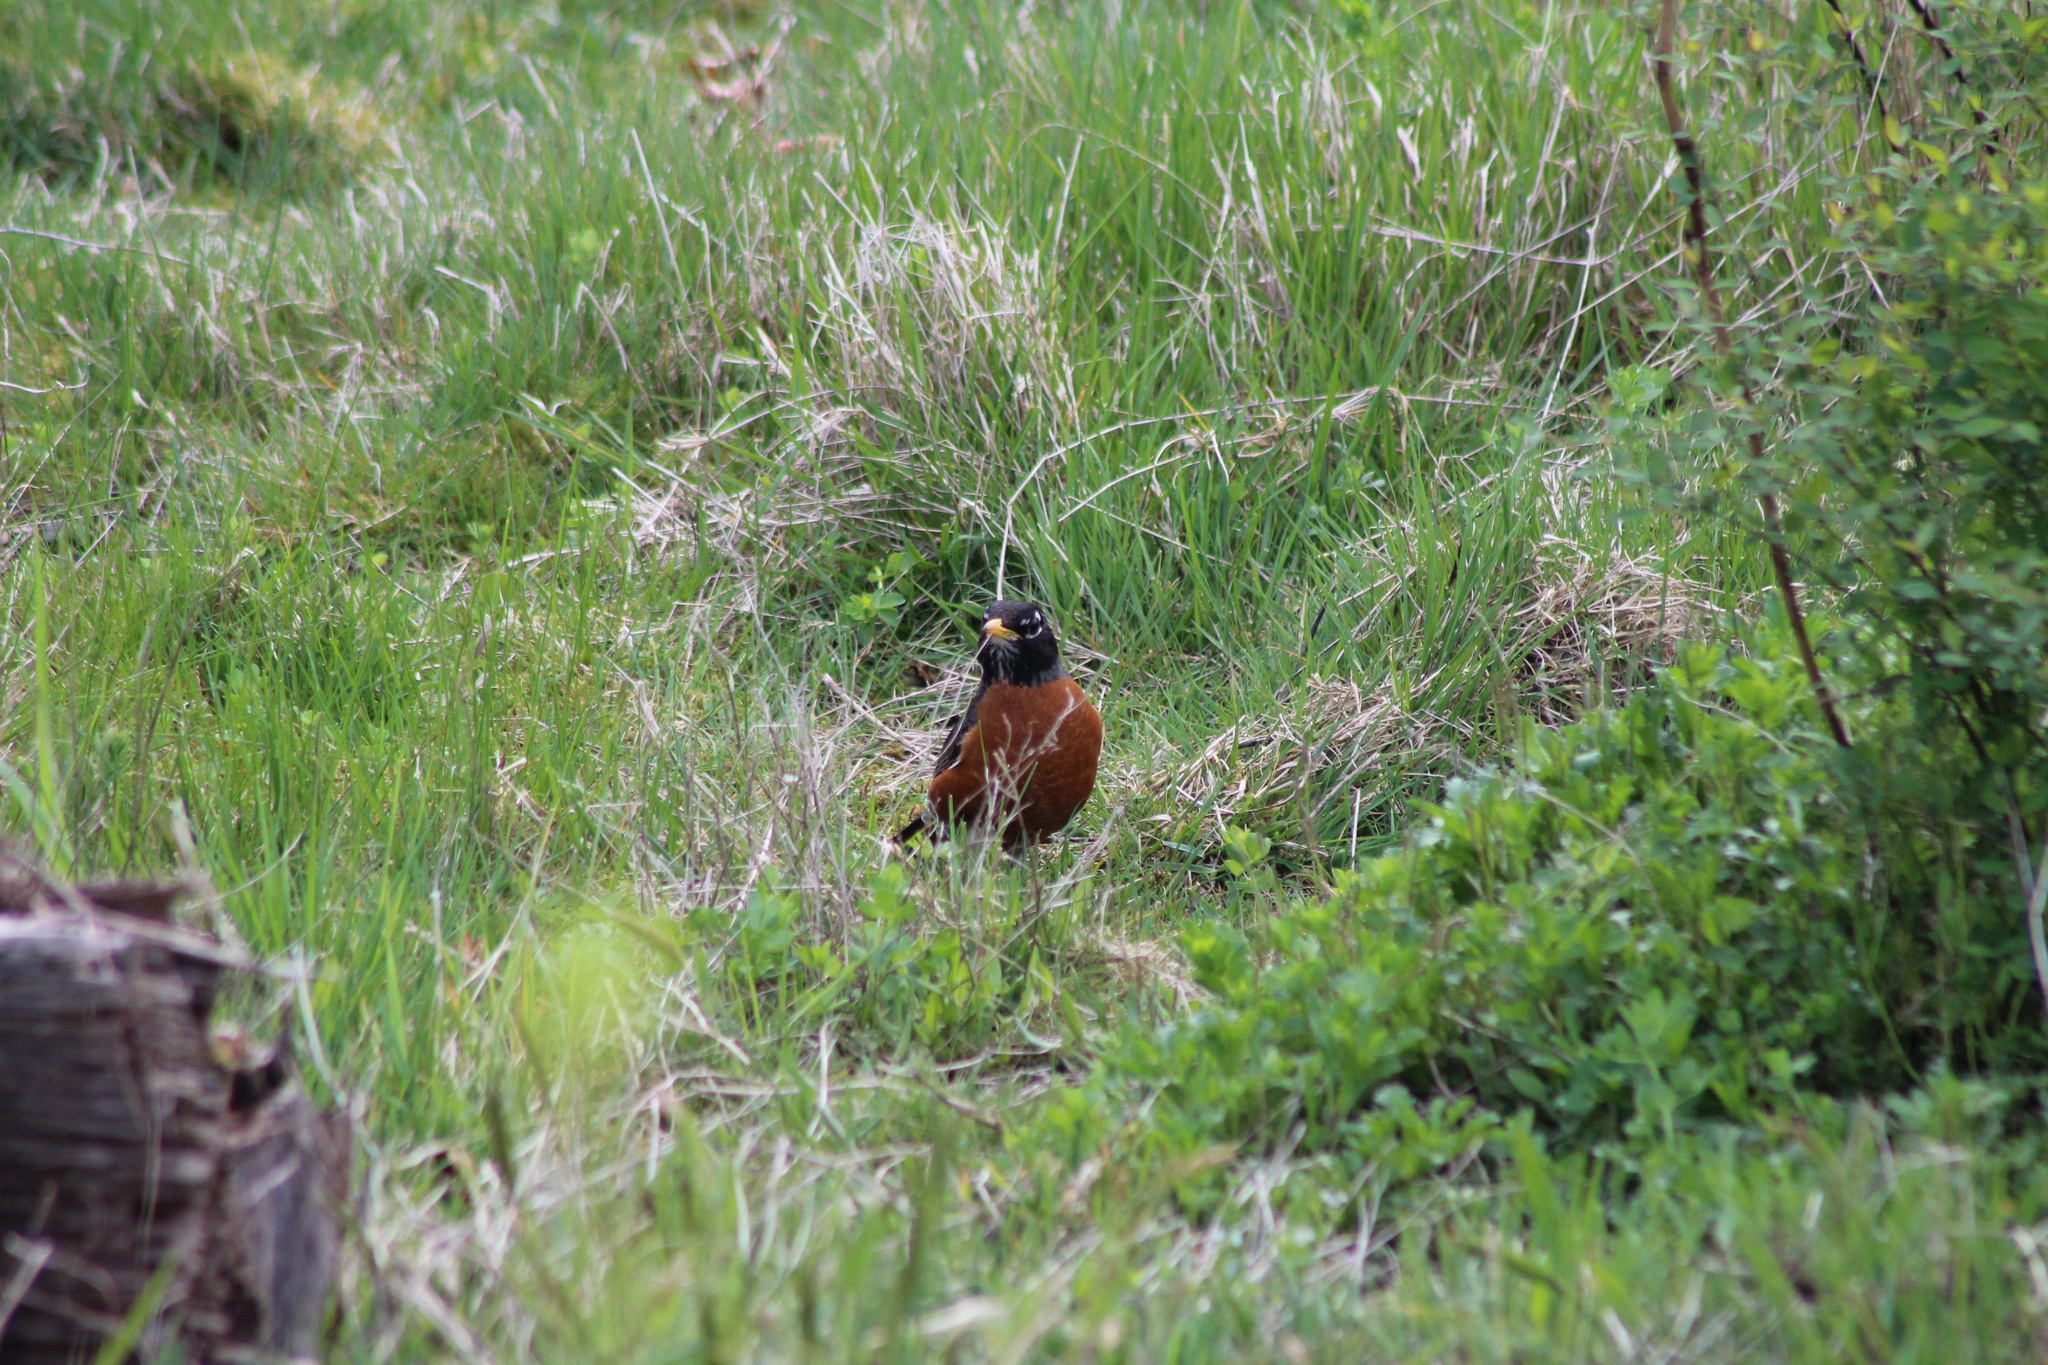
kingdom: Animalia
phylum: Chordata
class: Aves
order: Passeriformes
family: Turdidae
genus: Turdus
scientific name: Turdus migratorius
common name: American robin
